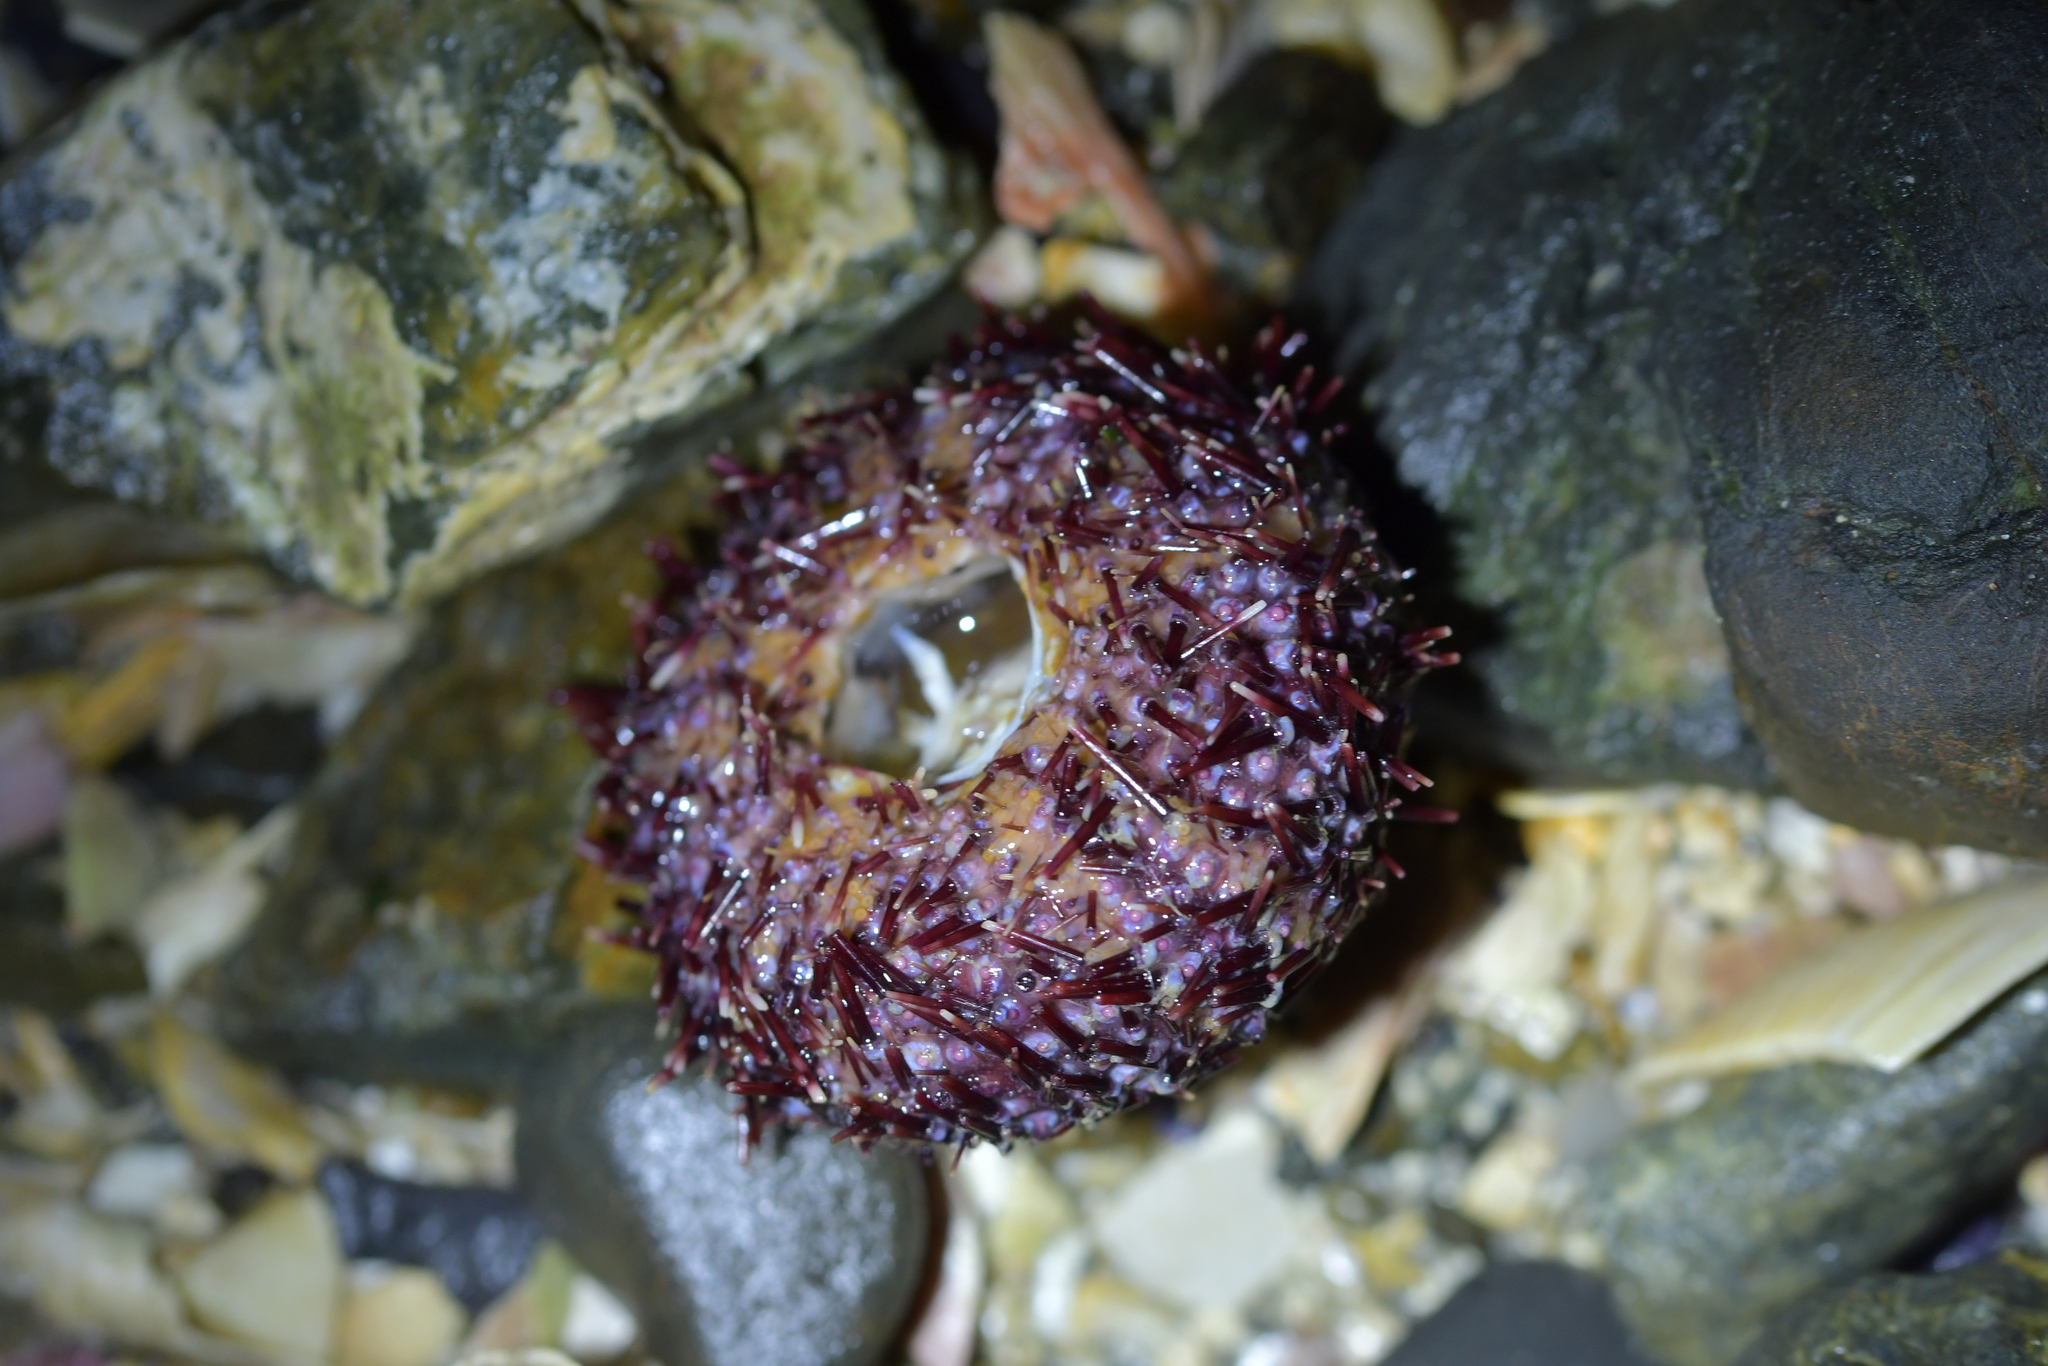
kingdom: Animalia
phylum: Echinodermata
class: Echinoidea
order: Camarodonta
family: Echinometridae
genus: Evechinus
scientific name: Evechinus chloroticus
